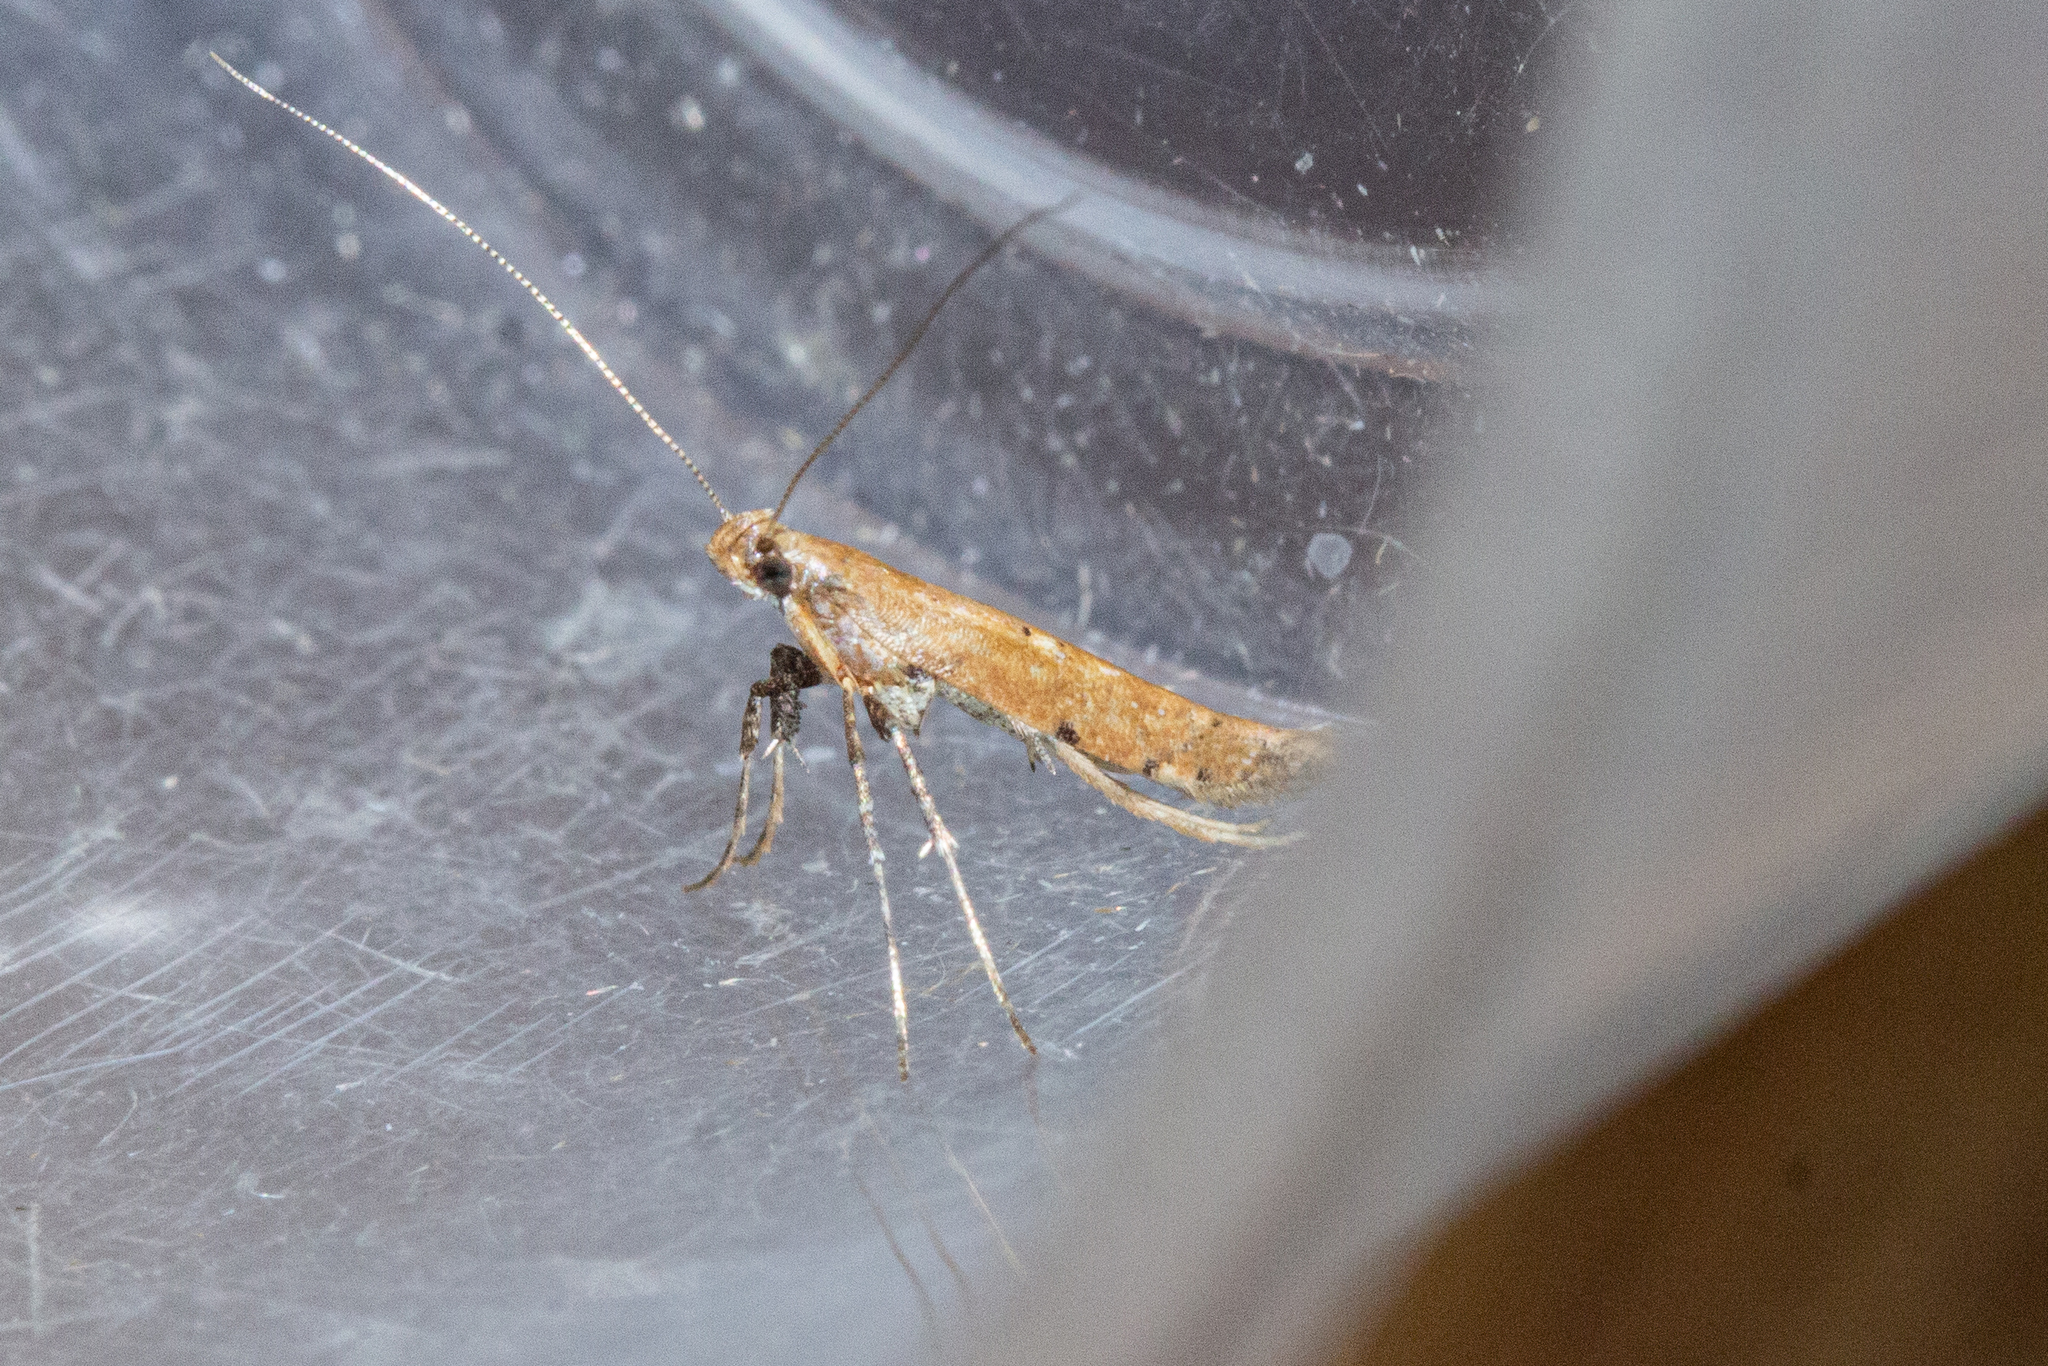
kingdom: Animalia
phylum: Arthropoda
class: Insecta
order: Lepidoptera
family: Gracillariidae
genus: Caloptilia
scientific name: Caloptilia linearis
